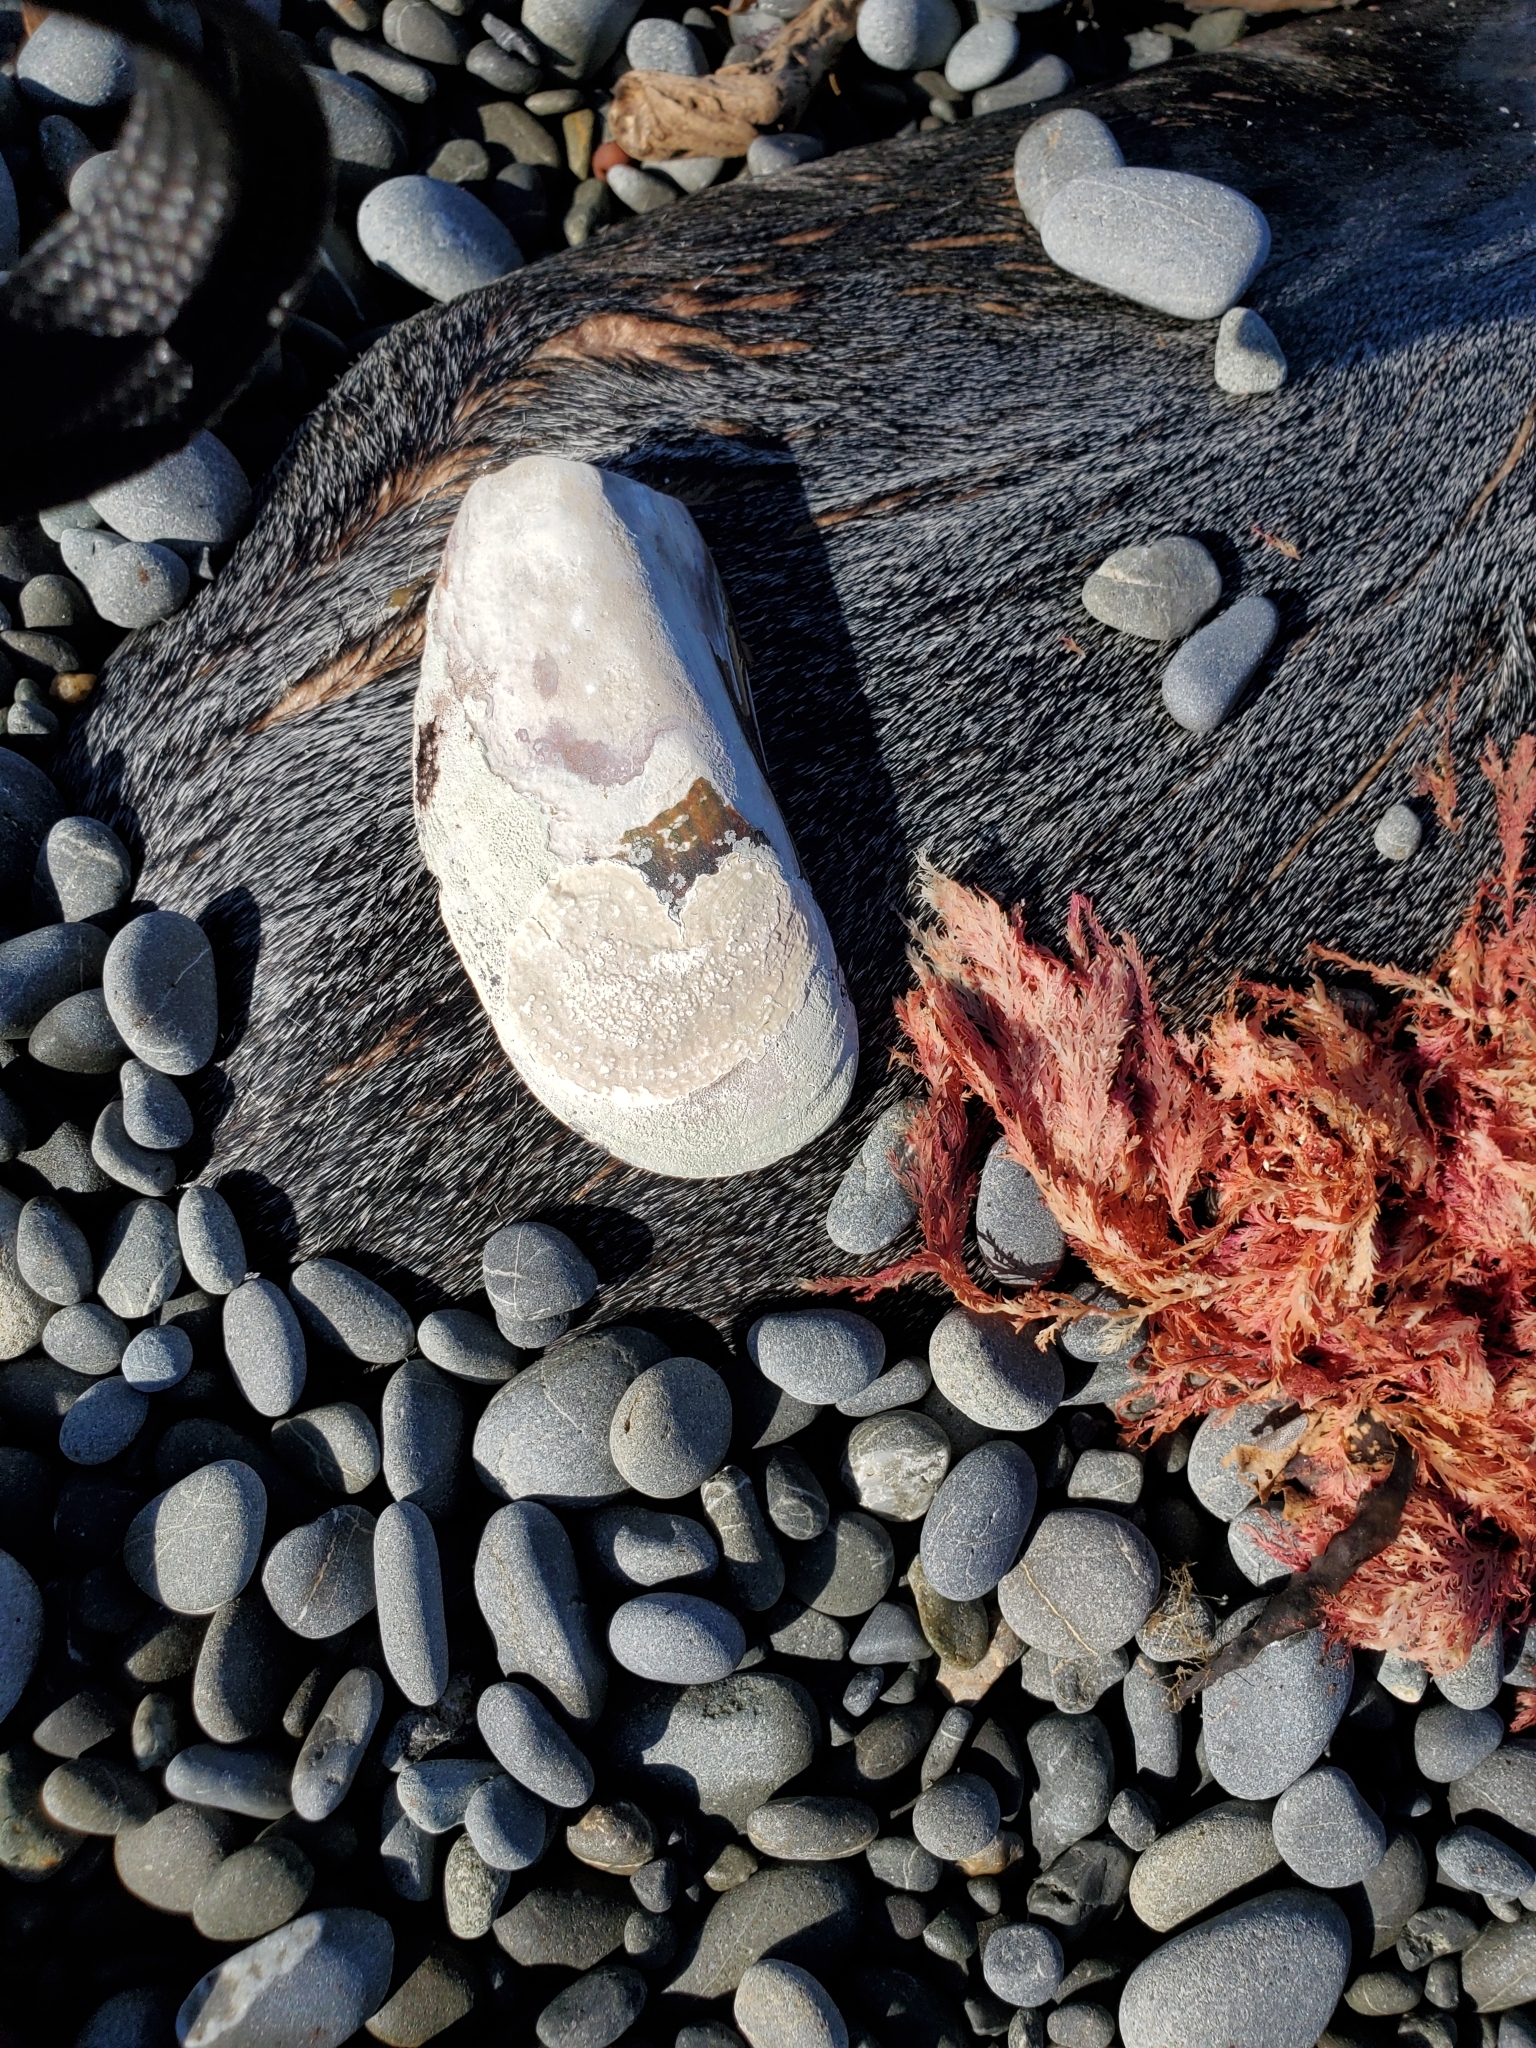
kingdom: Animalia
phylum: Mollusca
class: Bivalvia
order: Mytilida
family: Mytilidae
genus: Perna
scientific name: Perna canaliculus
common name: New zealand greenshelltm
